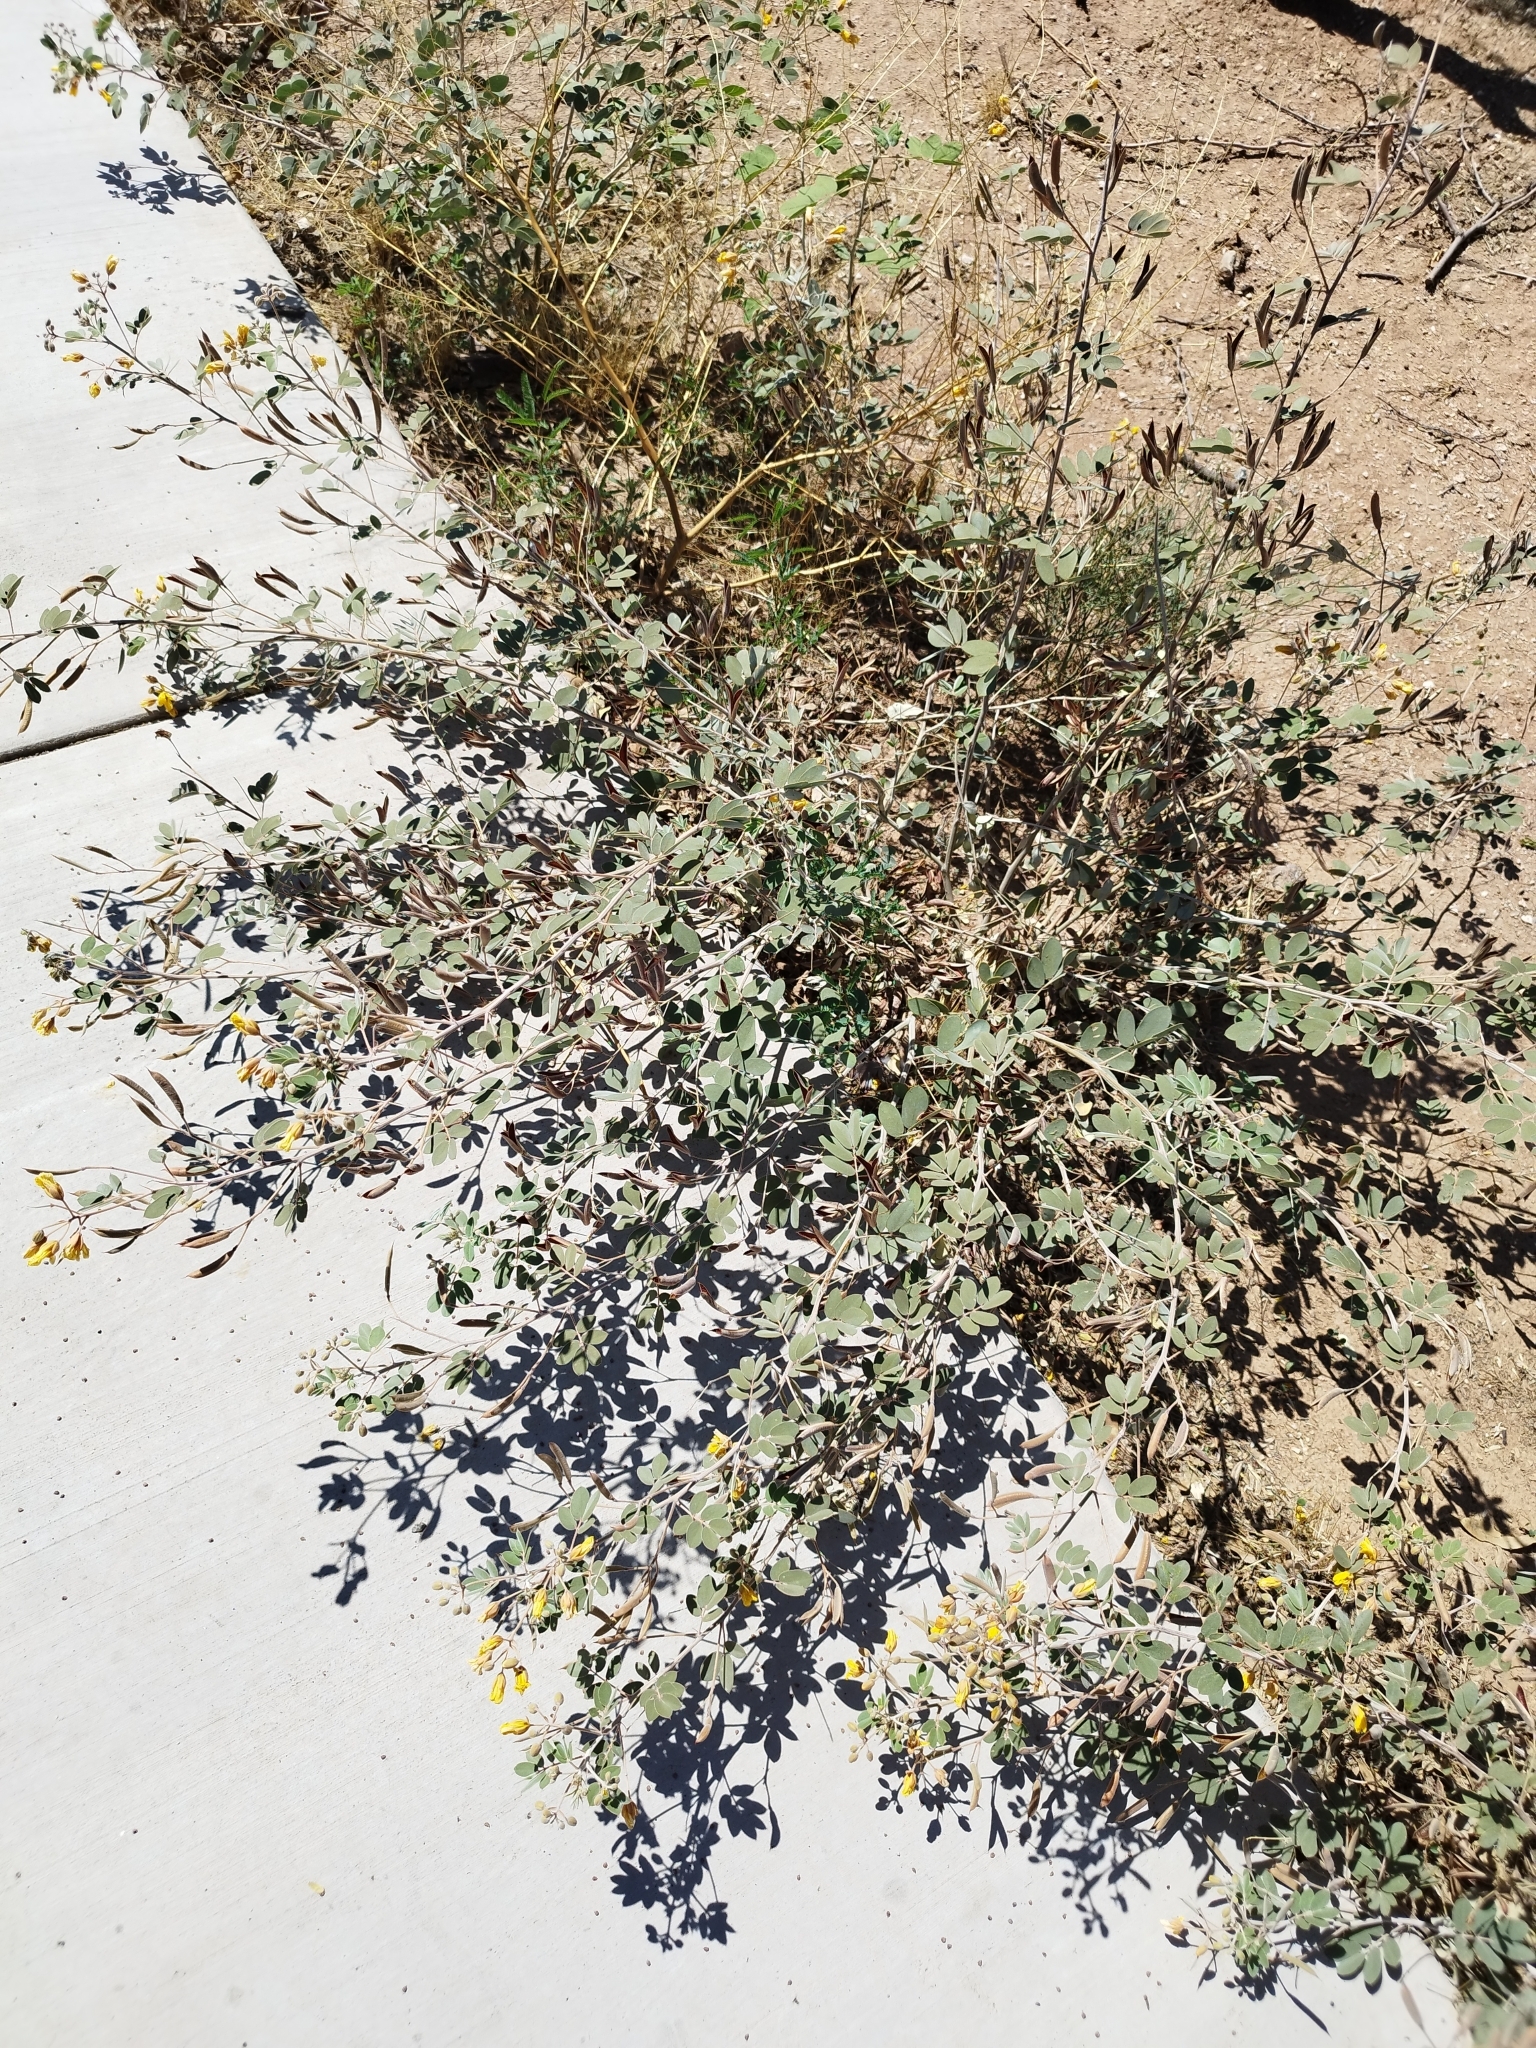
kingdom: Plantae
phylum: Tracheophyta
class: Magnoliopsida
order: Fabales
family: Fabaceae
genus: Senna
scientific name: Senna covesii
